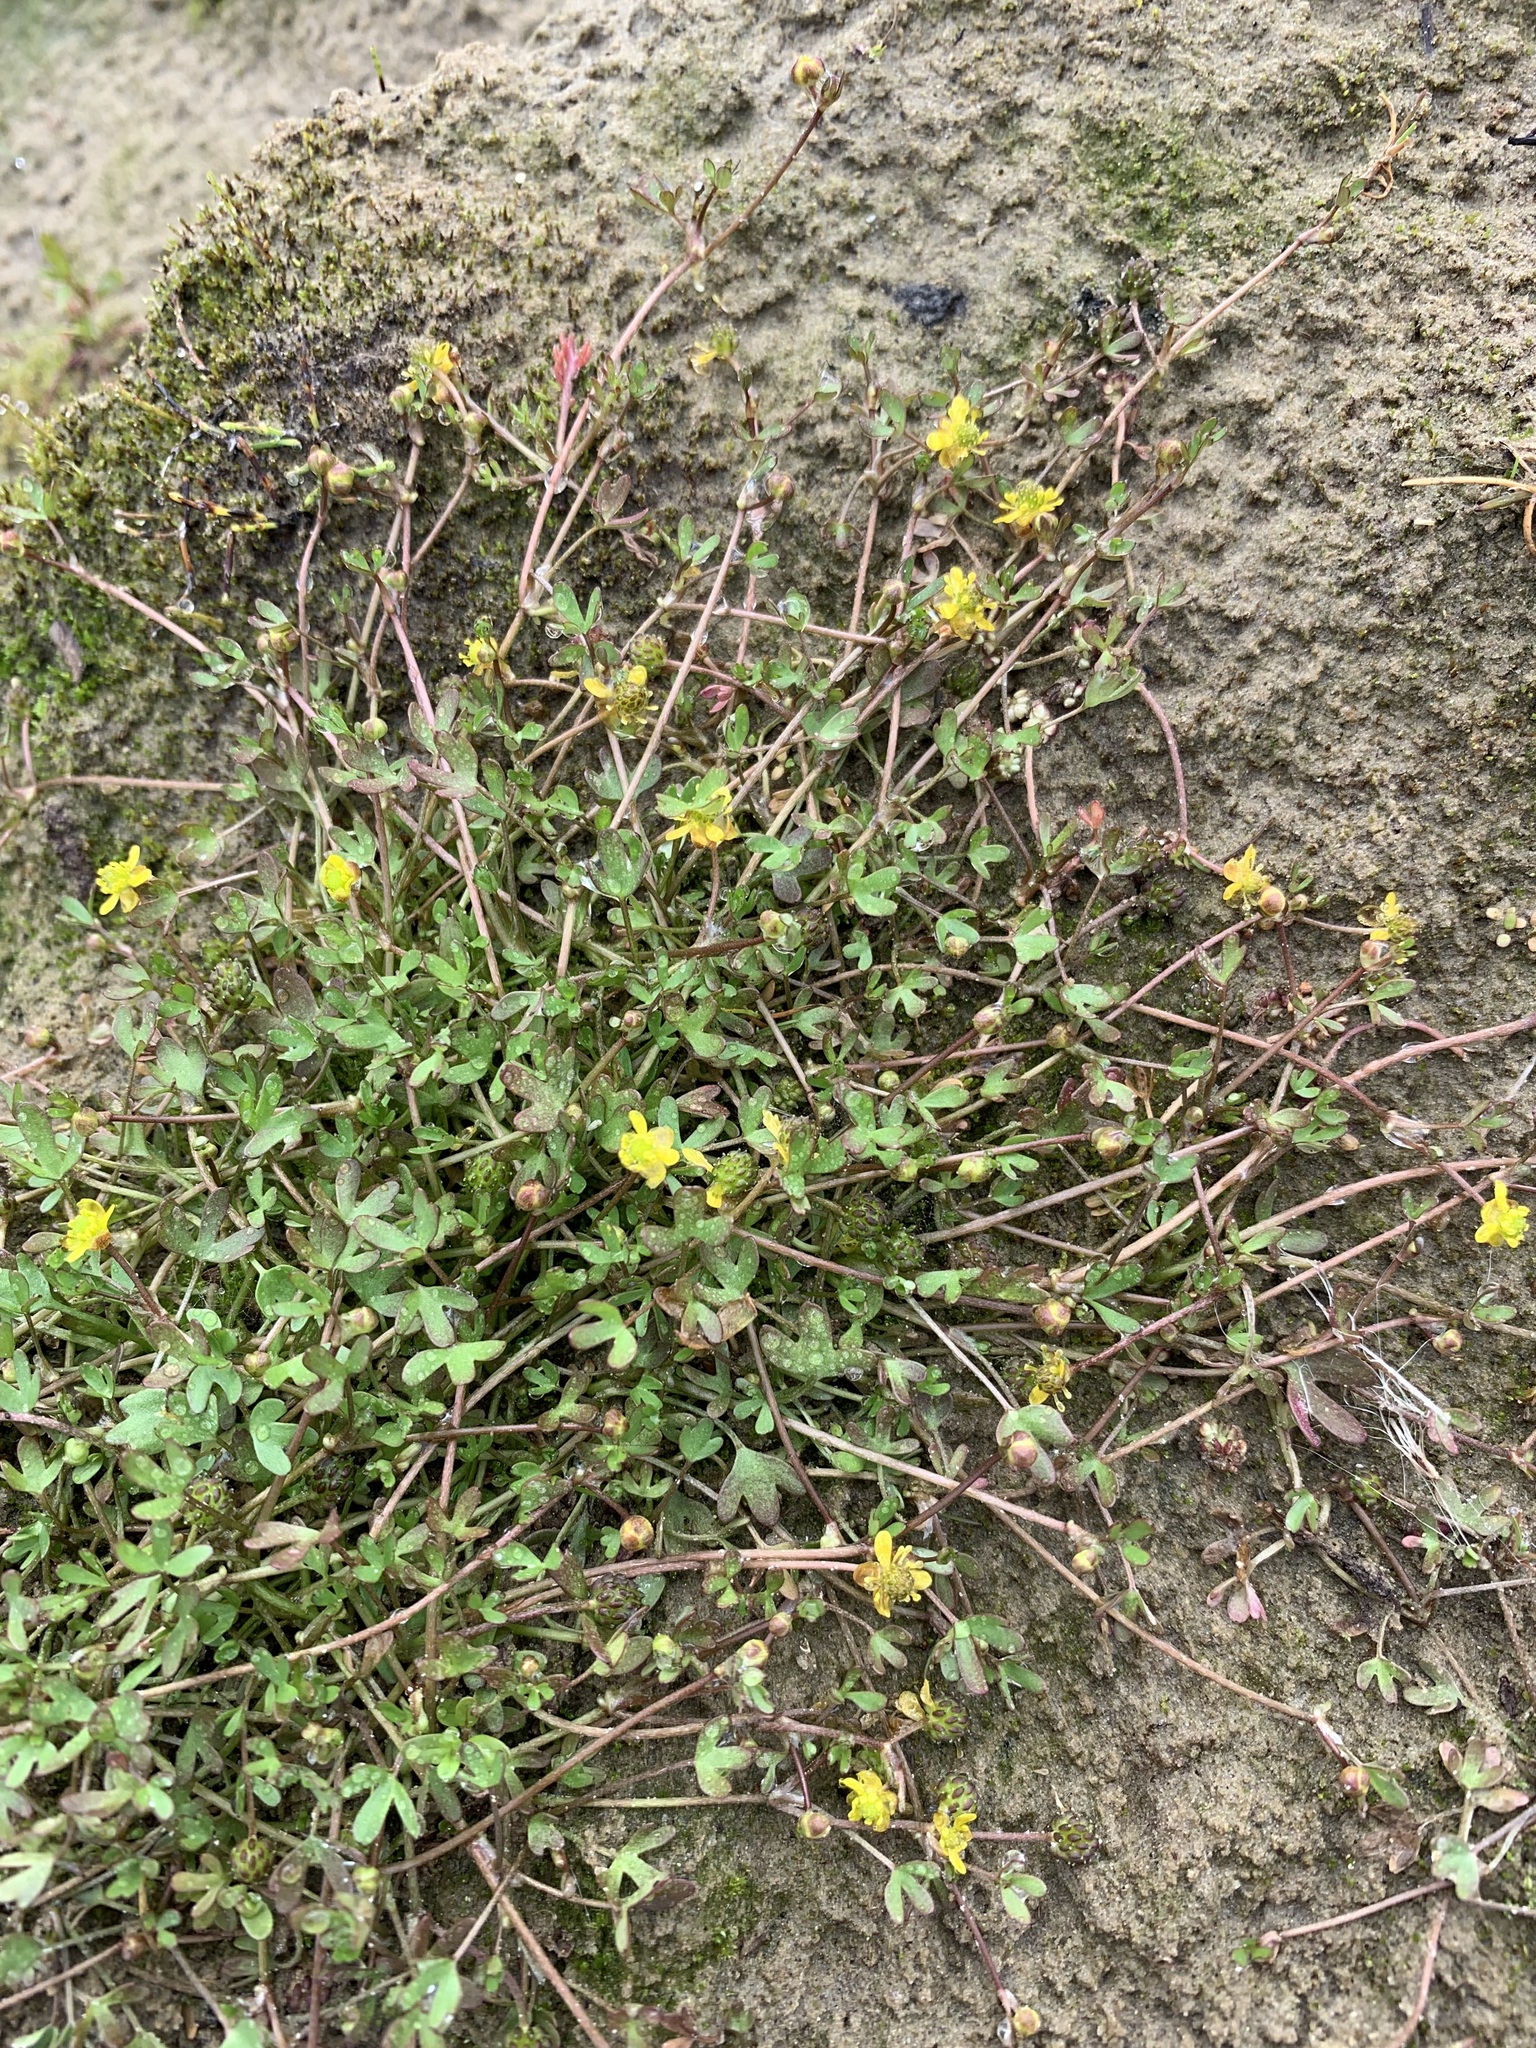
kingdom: Plantae
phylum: Tracheophyta
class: Magnoliopsida
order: Ranunculales
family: Ranunculaceae
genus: Ranunculus
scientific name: Ranunculus hyperboreus
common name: Arctic buttercup
